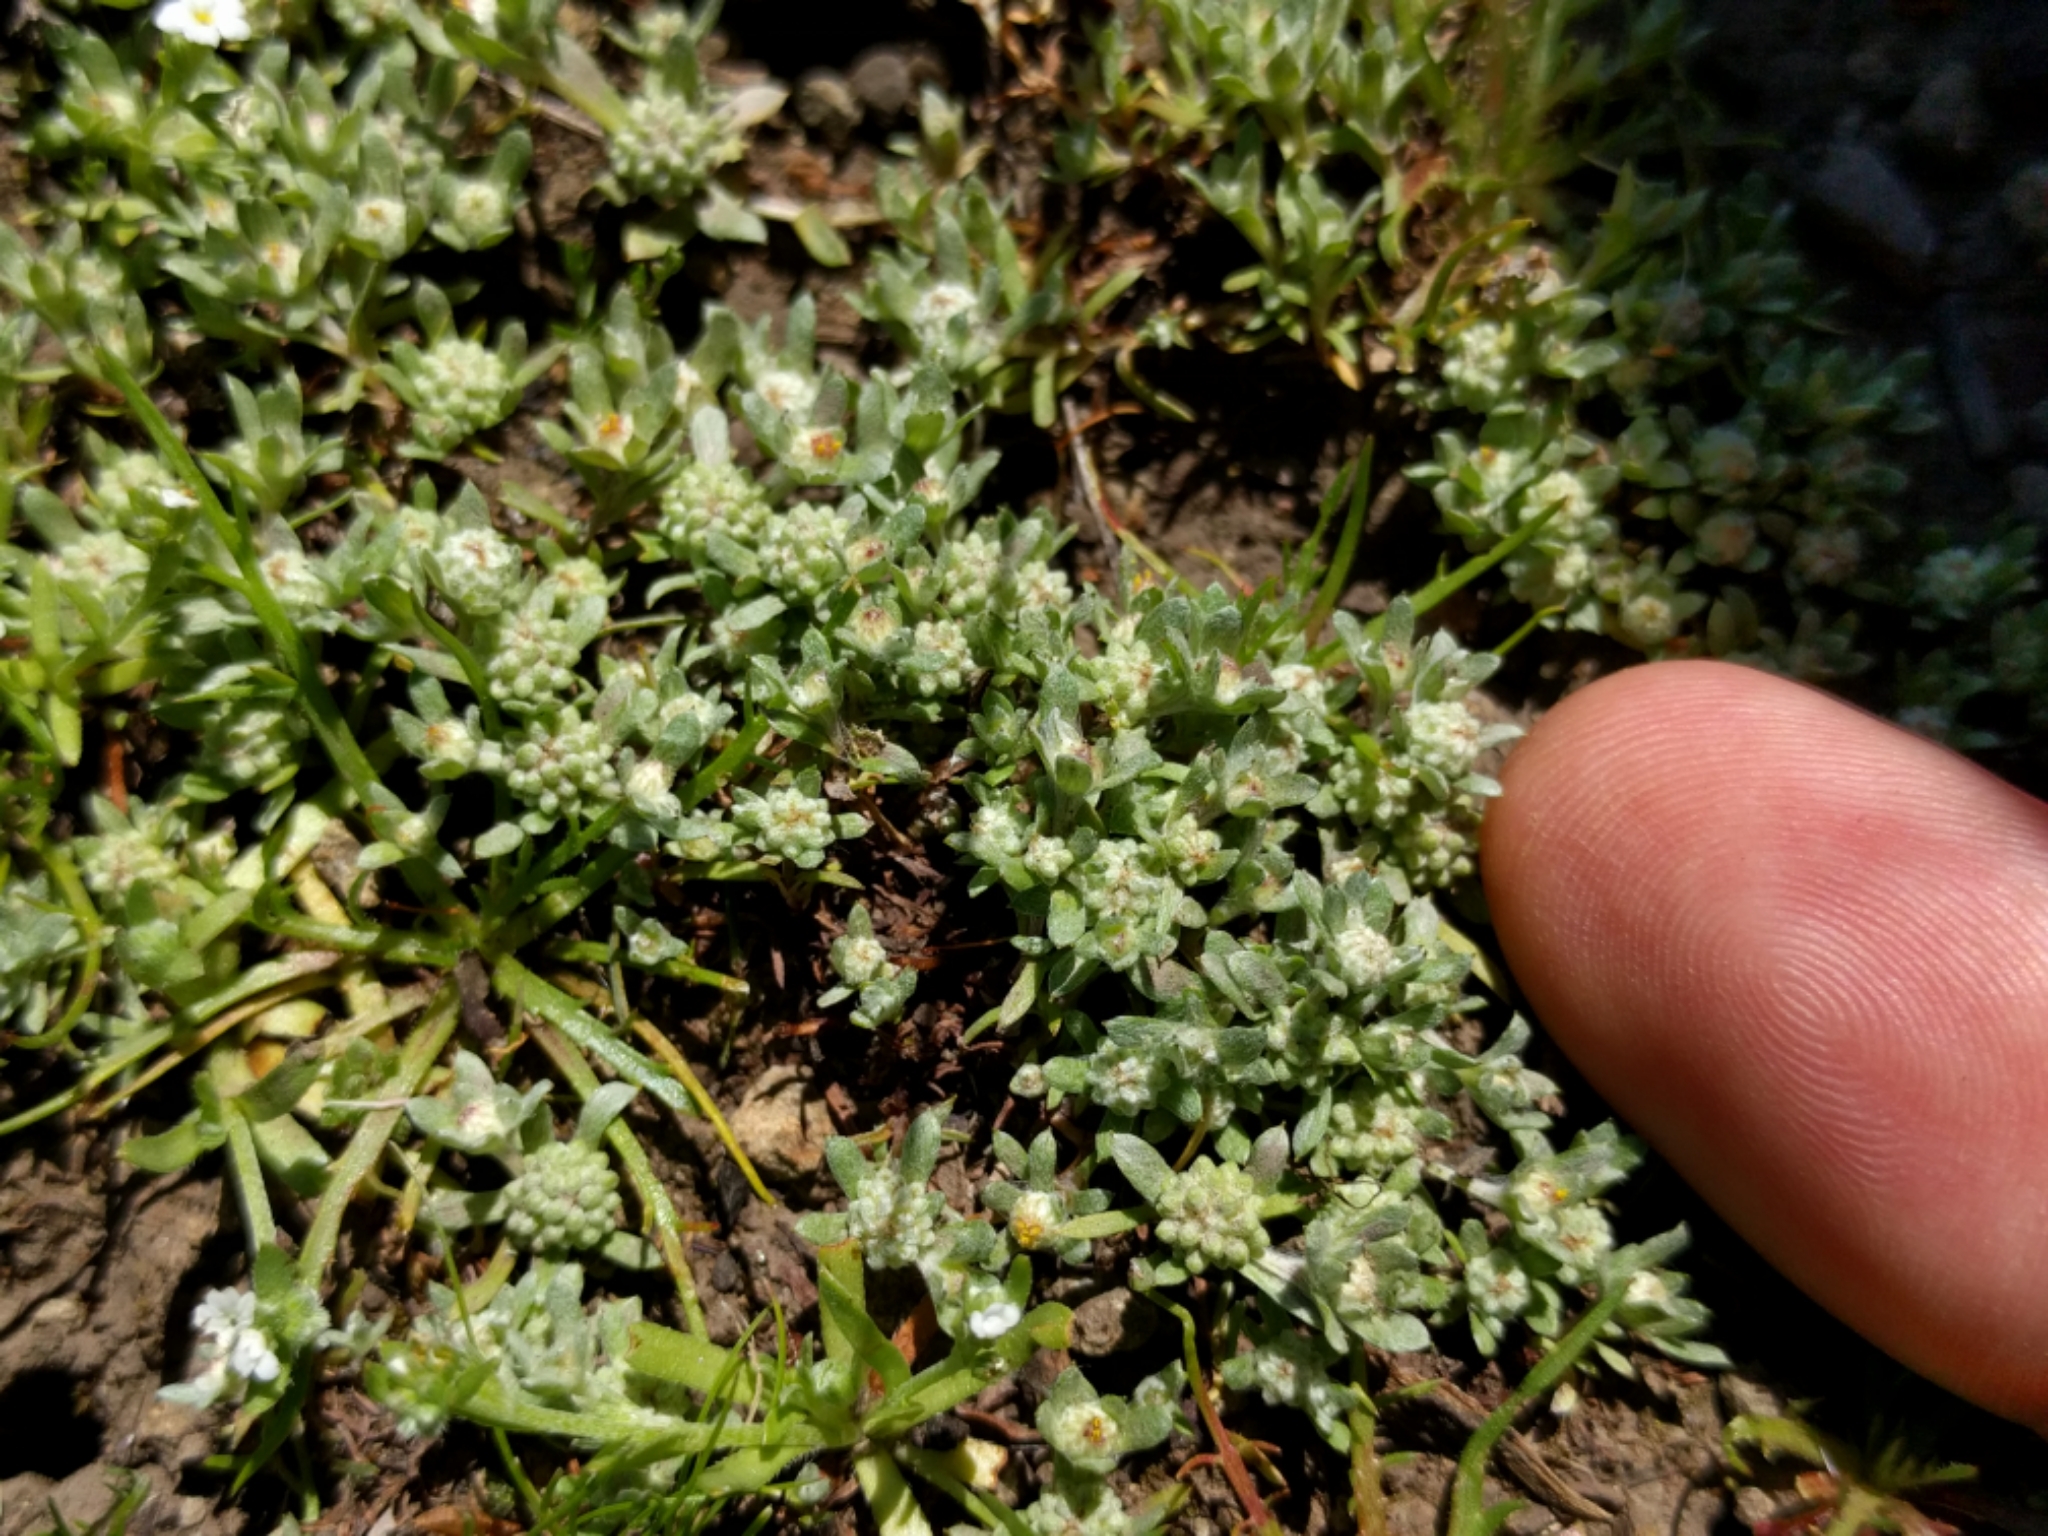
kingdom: Plantae
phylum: Tracheophyta
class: Magnoliopsida
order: Asterales
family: Asteraceae
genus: Psilocarphus
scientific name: Psilocarphus tenellus
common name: Slender woolly-marbles
